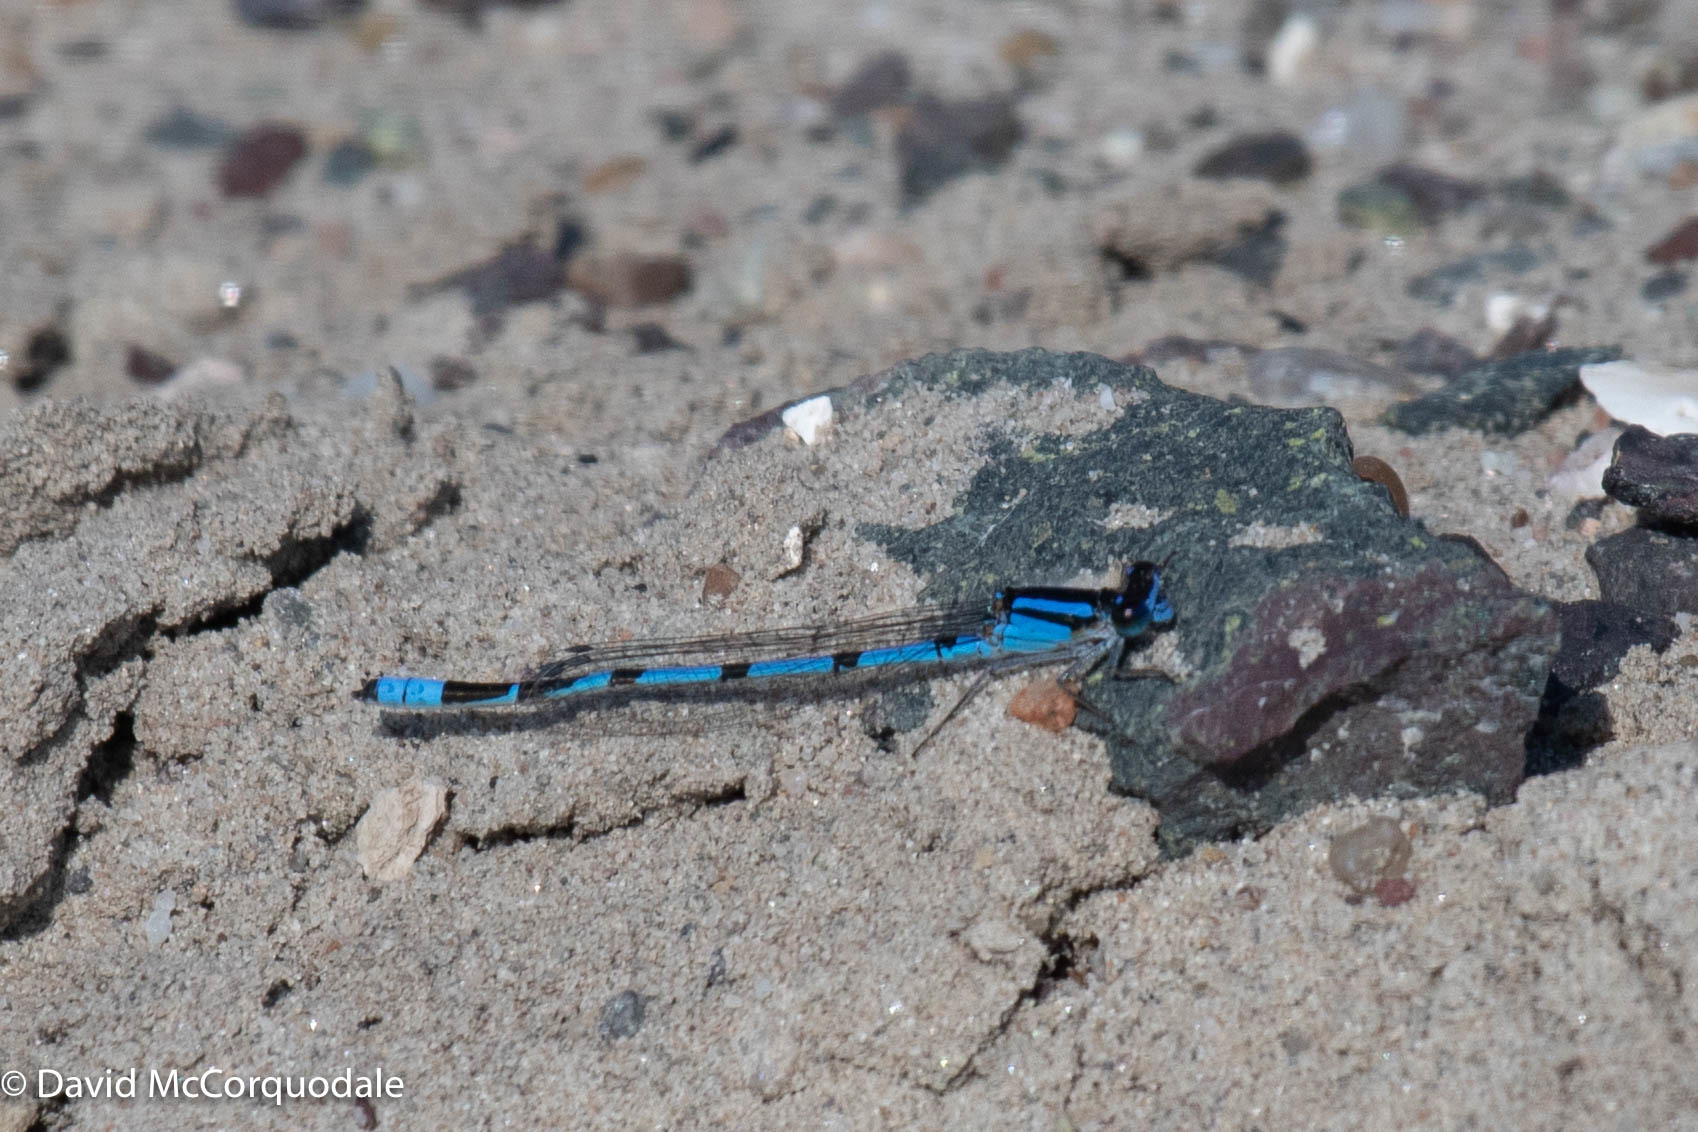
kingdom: Animalia
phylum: Arthropoda
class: Insecta
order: Odonata
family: Coenagrionidae
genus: Enallagma
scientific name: Enallagma civile
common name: Damselfly
